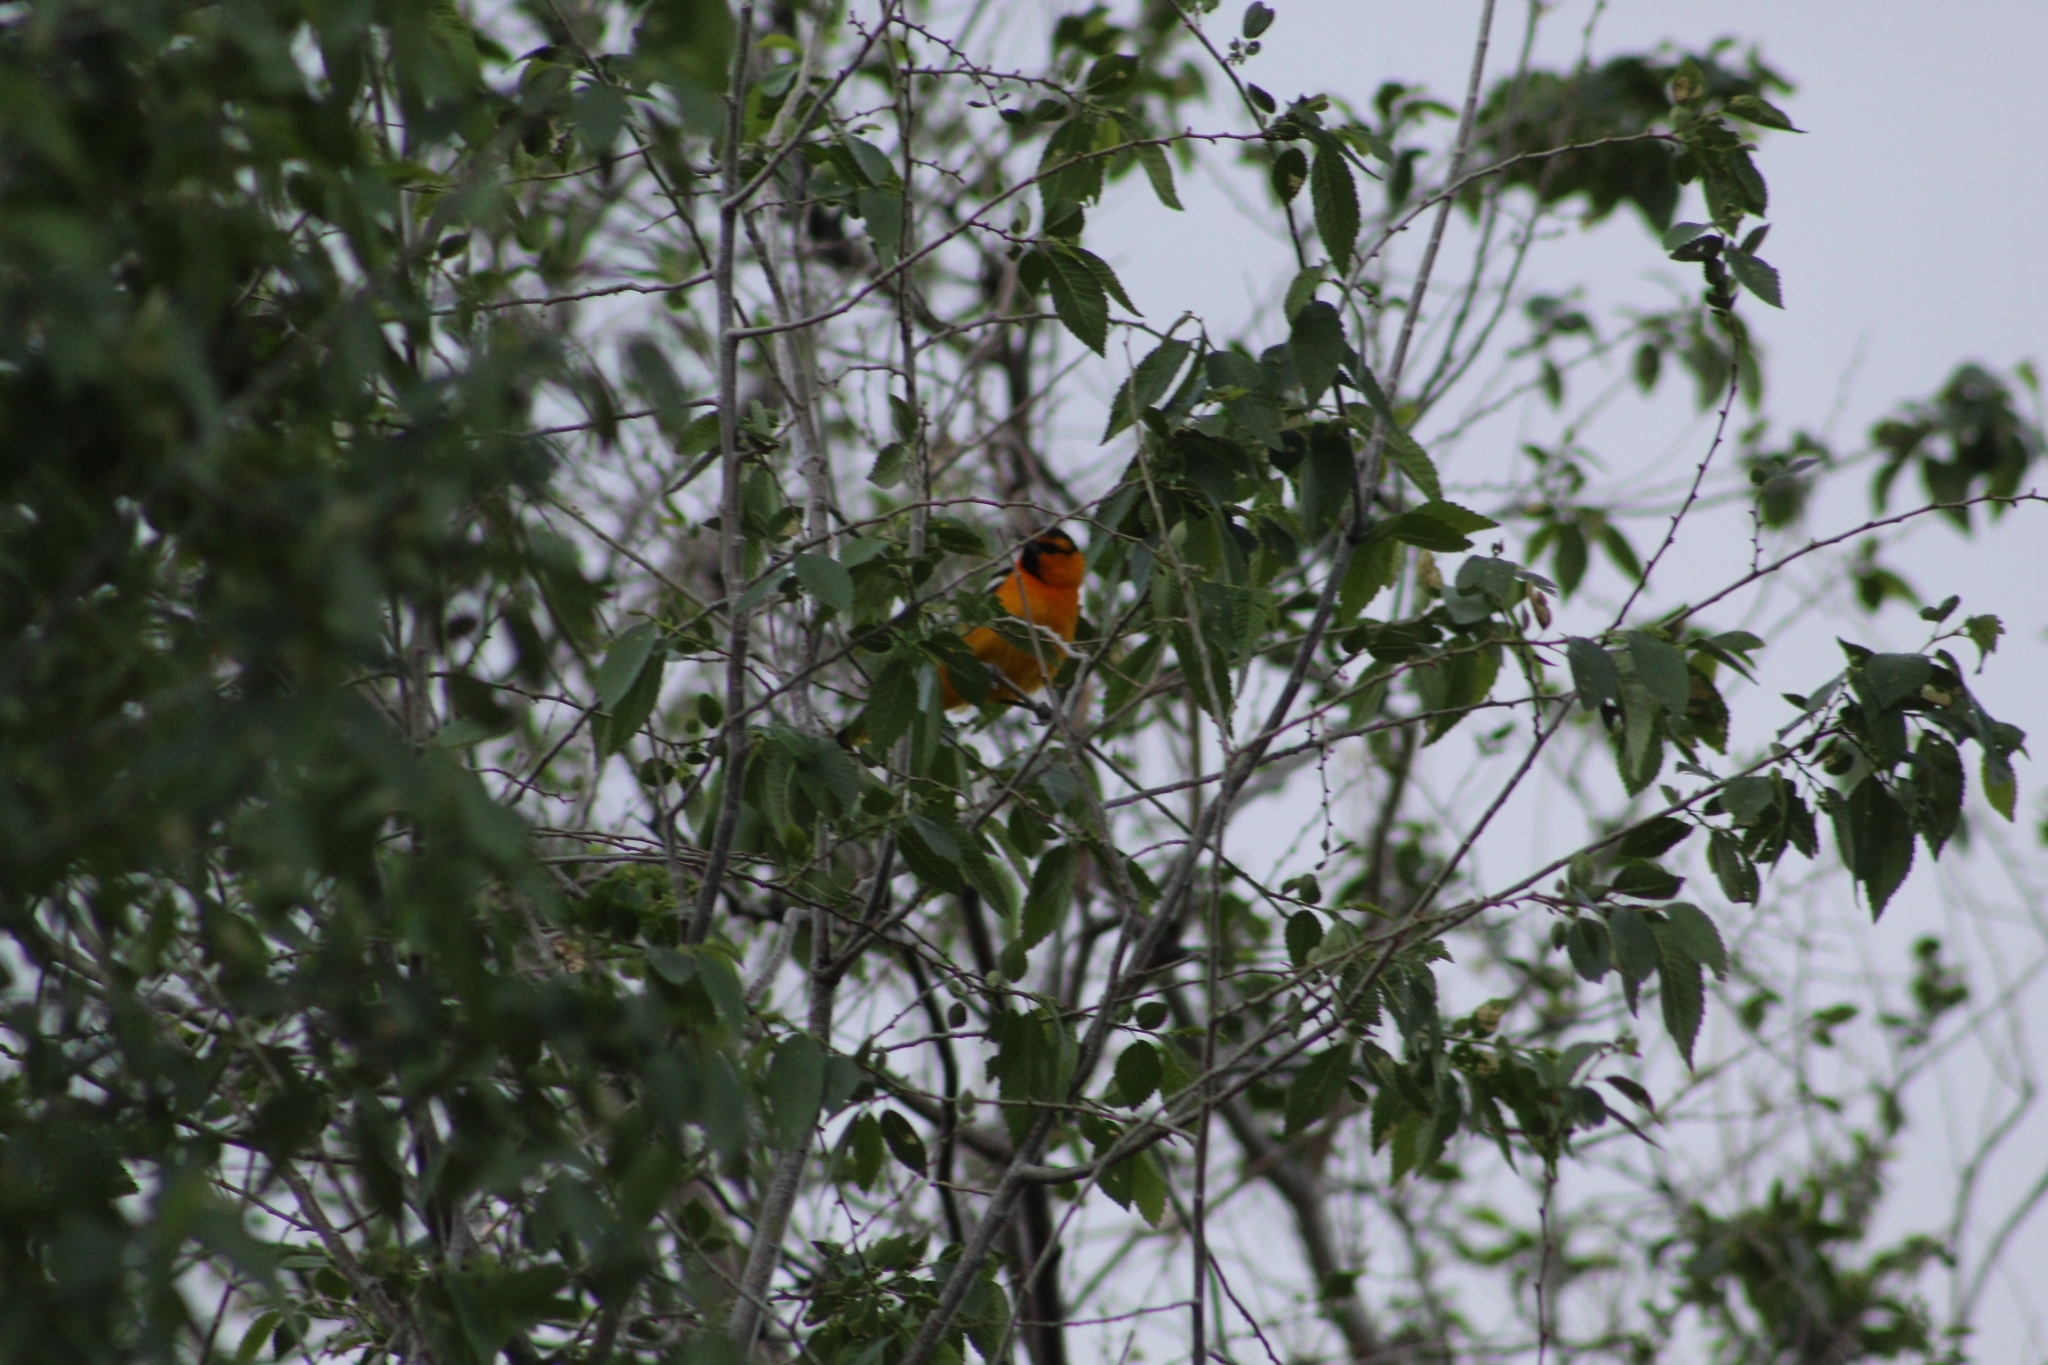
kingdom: Animalia
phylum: Chordata
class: Aves
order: Passeriformes
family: Icteridae
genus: Icterus
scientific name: Icterus bullockii
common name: Bullock's oriole
